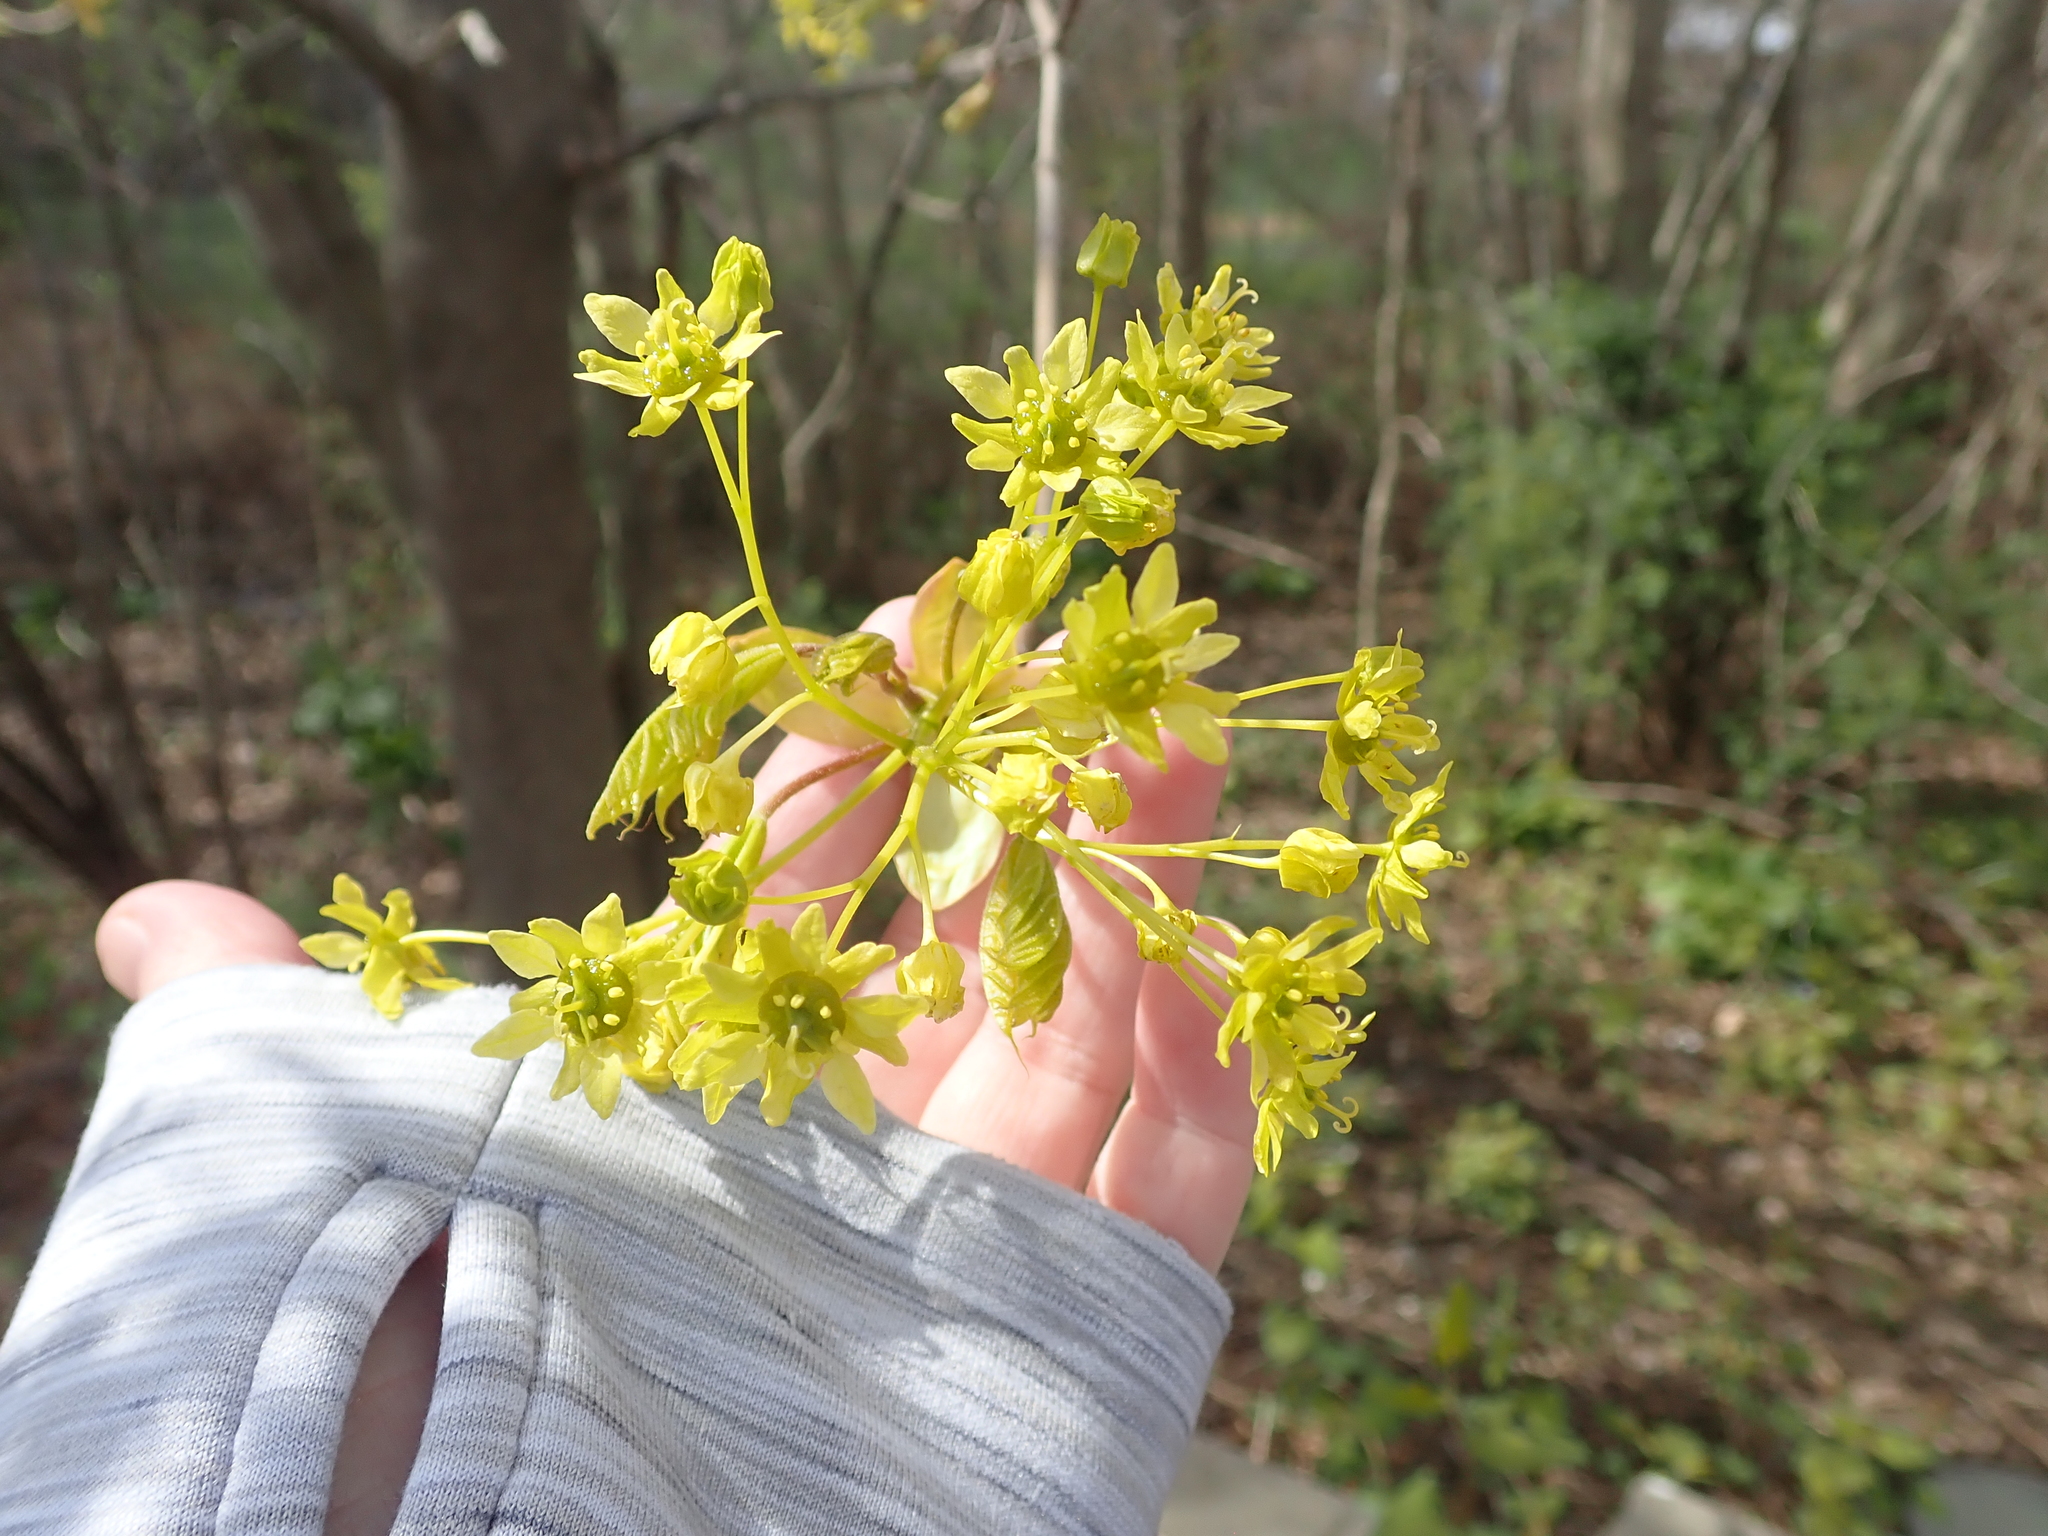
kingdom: Plantae
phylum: Tracheophyta
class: Magnoliopsida
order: Sapindales
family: Sapindaceae
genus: Acer
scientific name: Acer platanoides
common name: Norway maple
